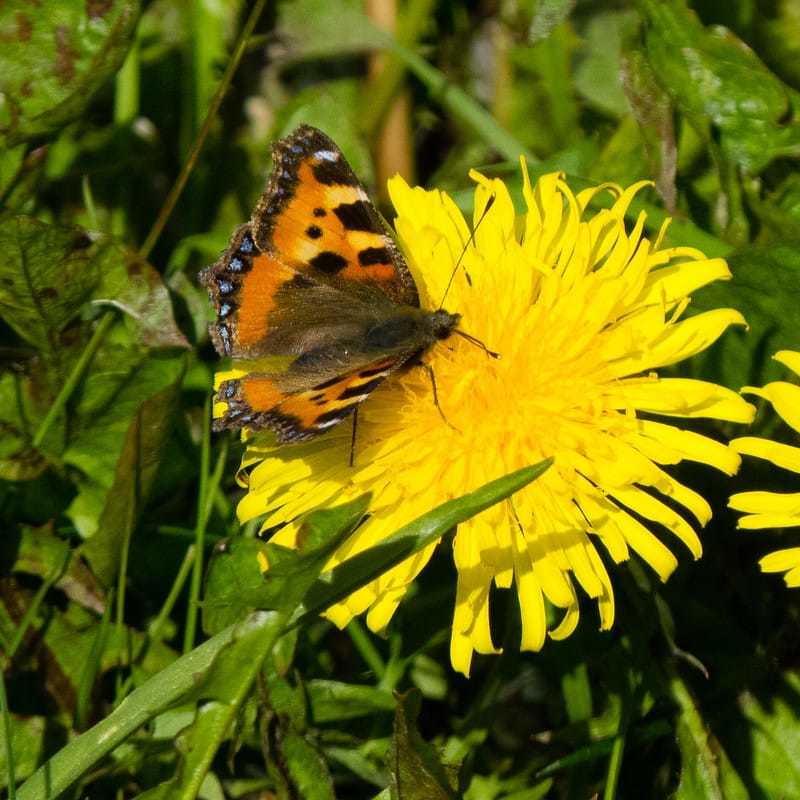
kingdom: Animalia
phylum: Arthropoda
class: Insecta
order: Lepidoptera
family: Nymphalidae
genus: Aglais
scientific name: Aglais urticae
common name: Small tortoiseshell
